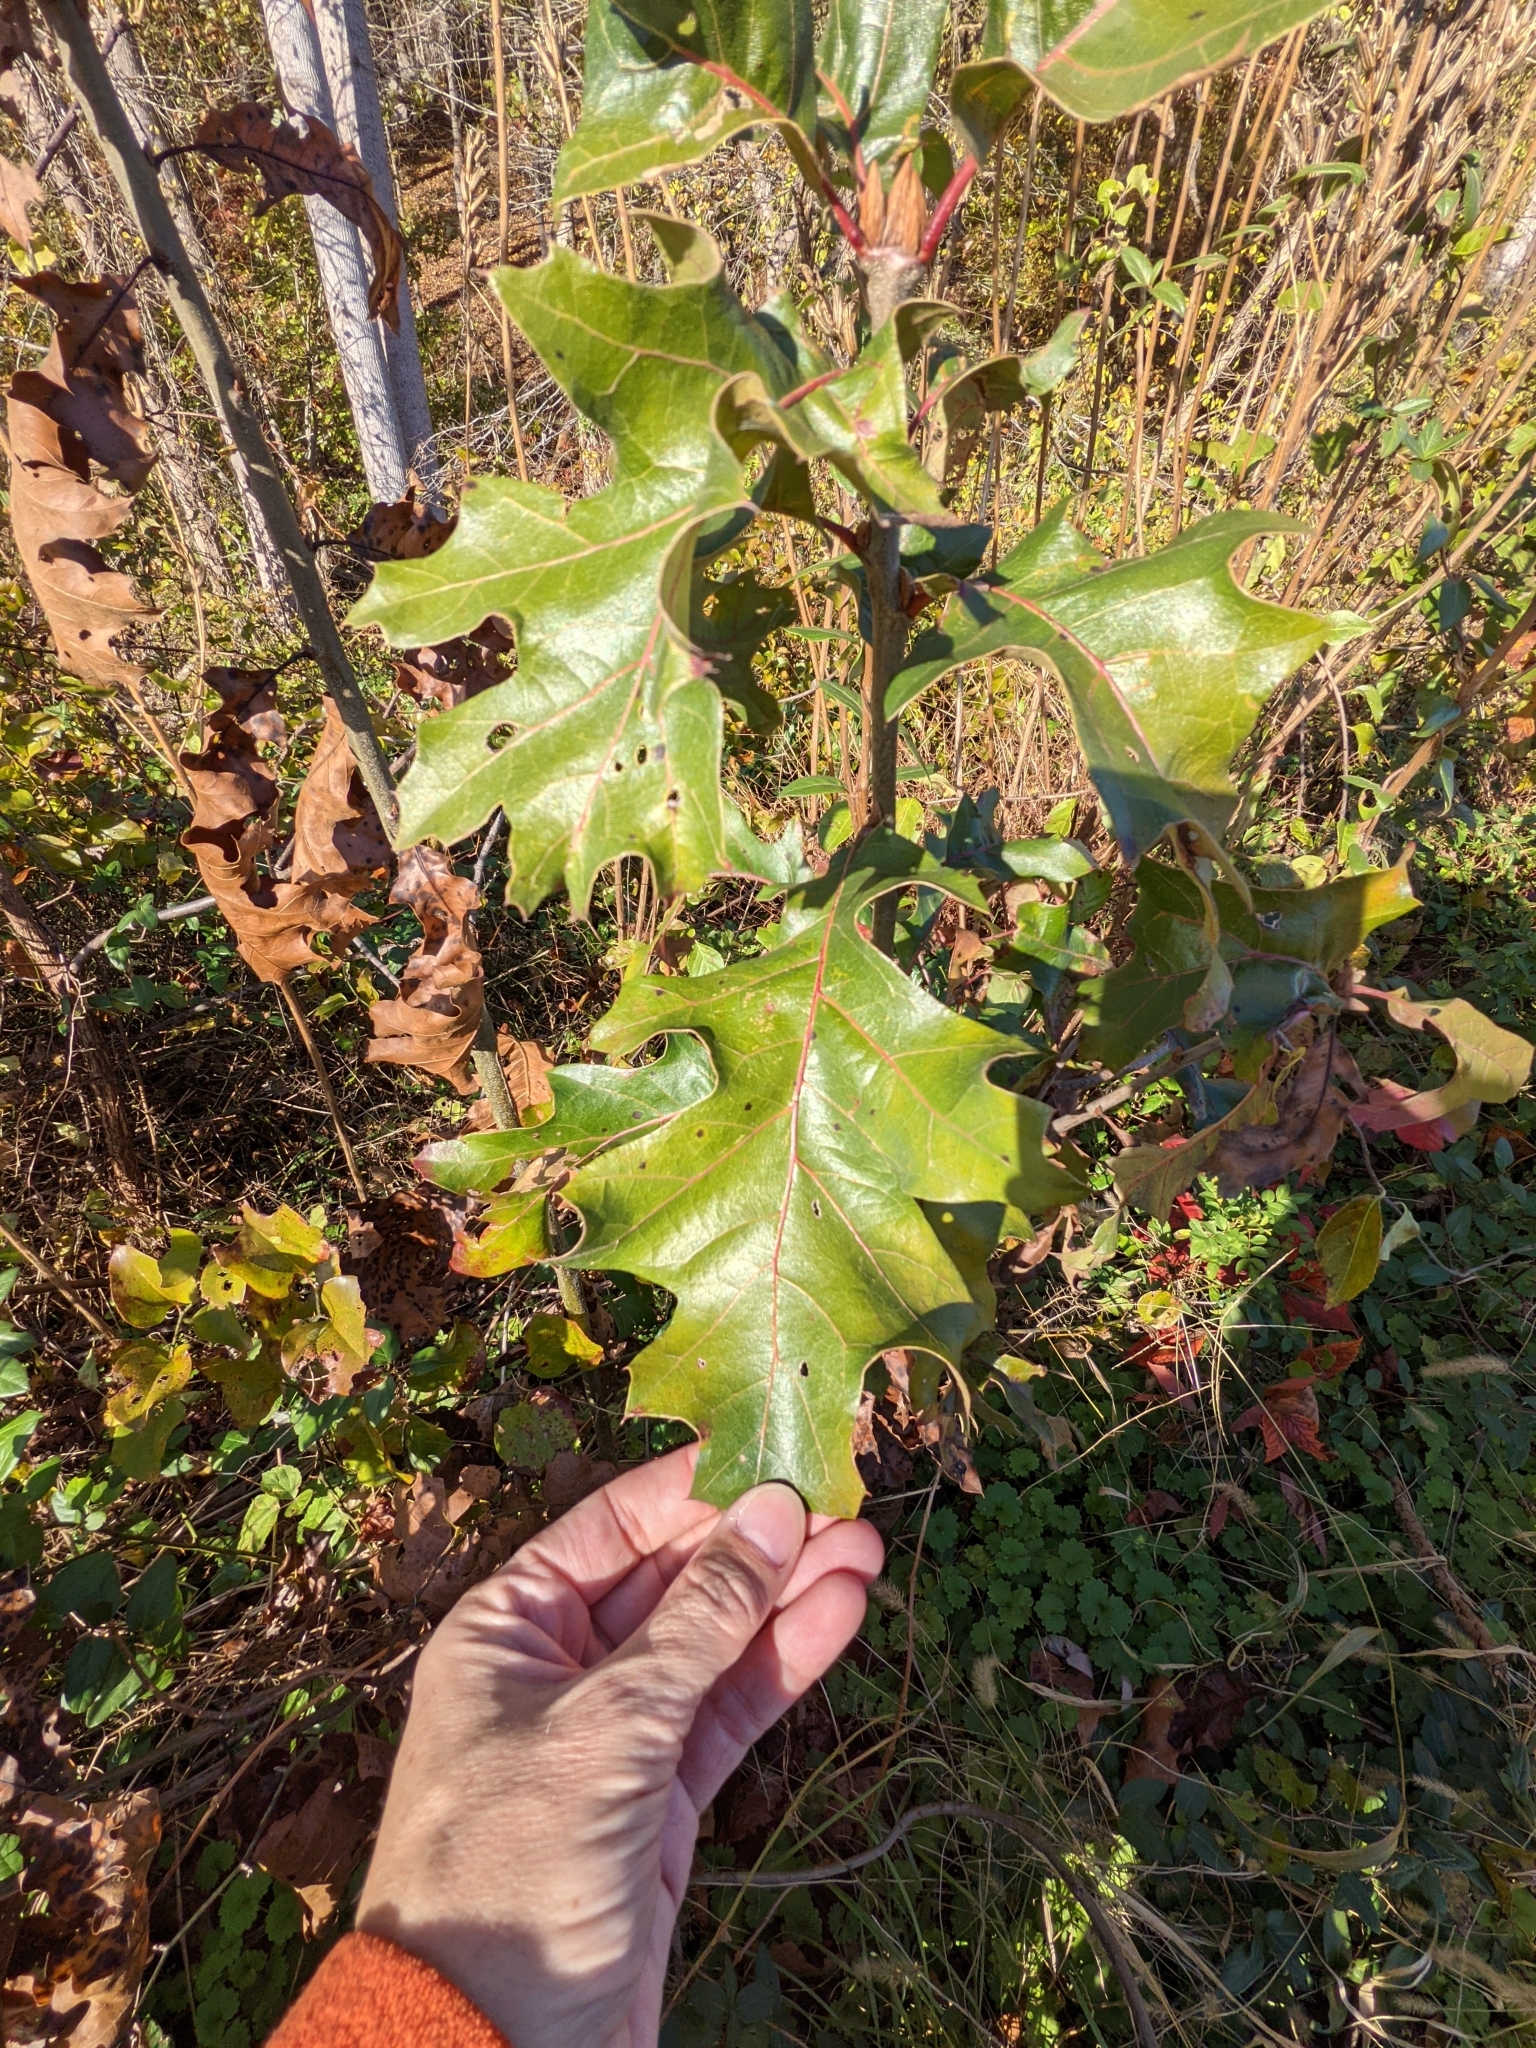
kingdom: Plantae
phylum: Tracheophyta
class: Magnoliopsida
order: Fagales
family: Fagaceae
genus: Quercus
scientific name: Quercus velutina
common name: Black oak
